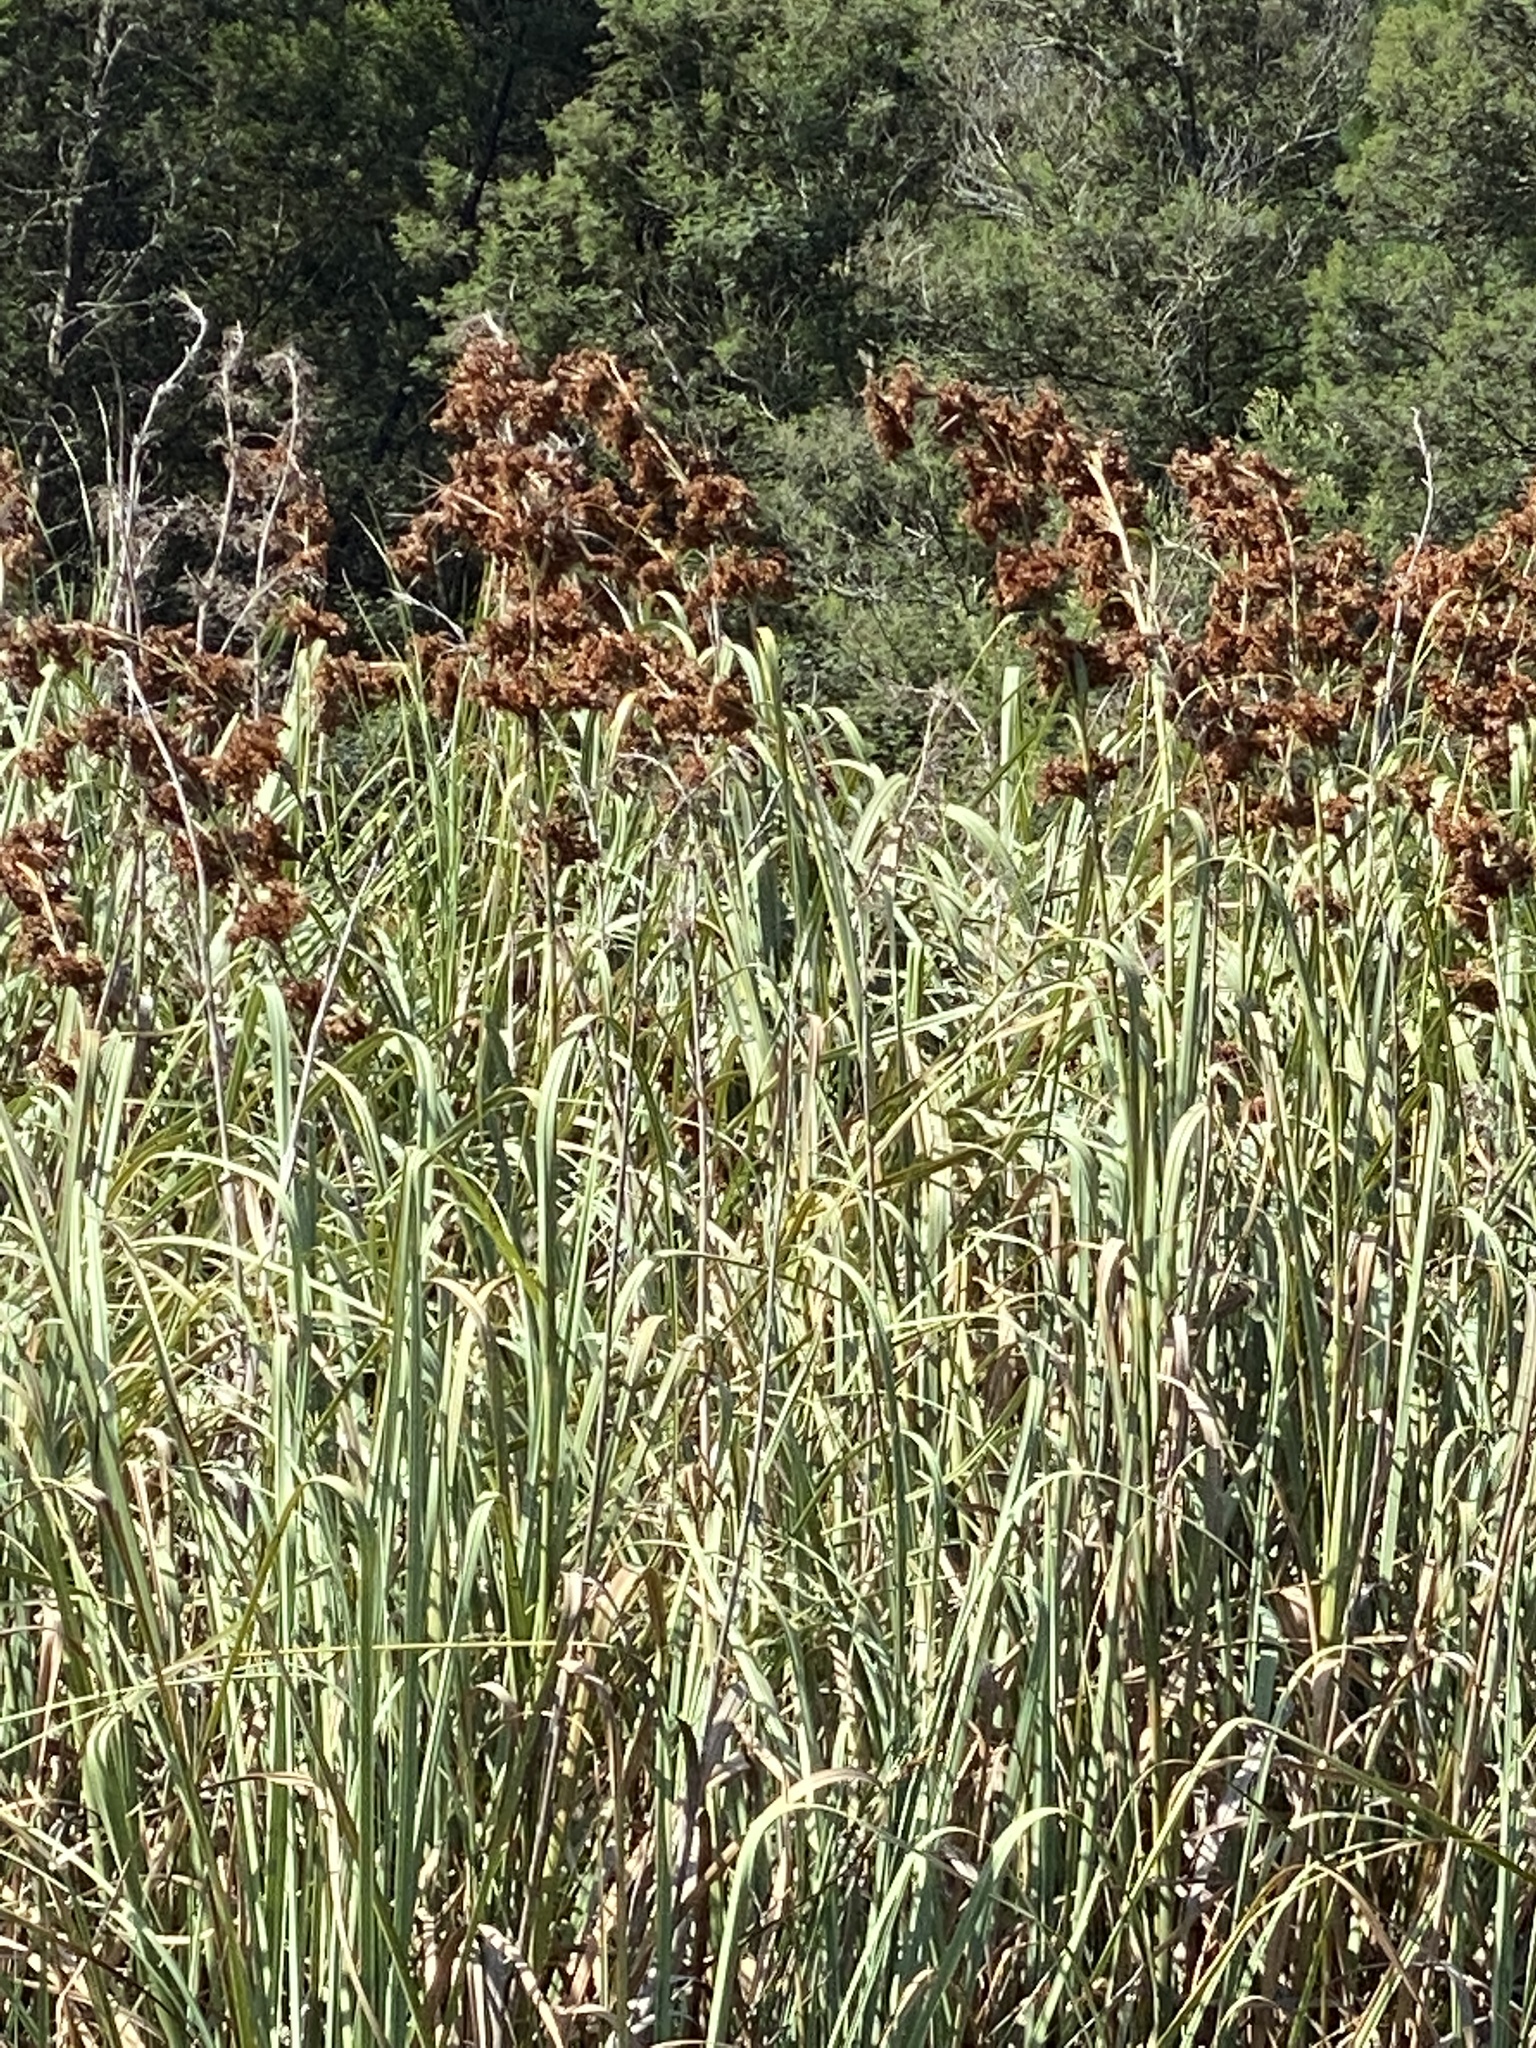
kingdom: Plantae
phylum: Tracheophyta
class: Liliopsida
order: Poales
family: Cyperaceae
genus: Cladium
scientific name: Cladium mariscus
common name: Great fen-sedge
